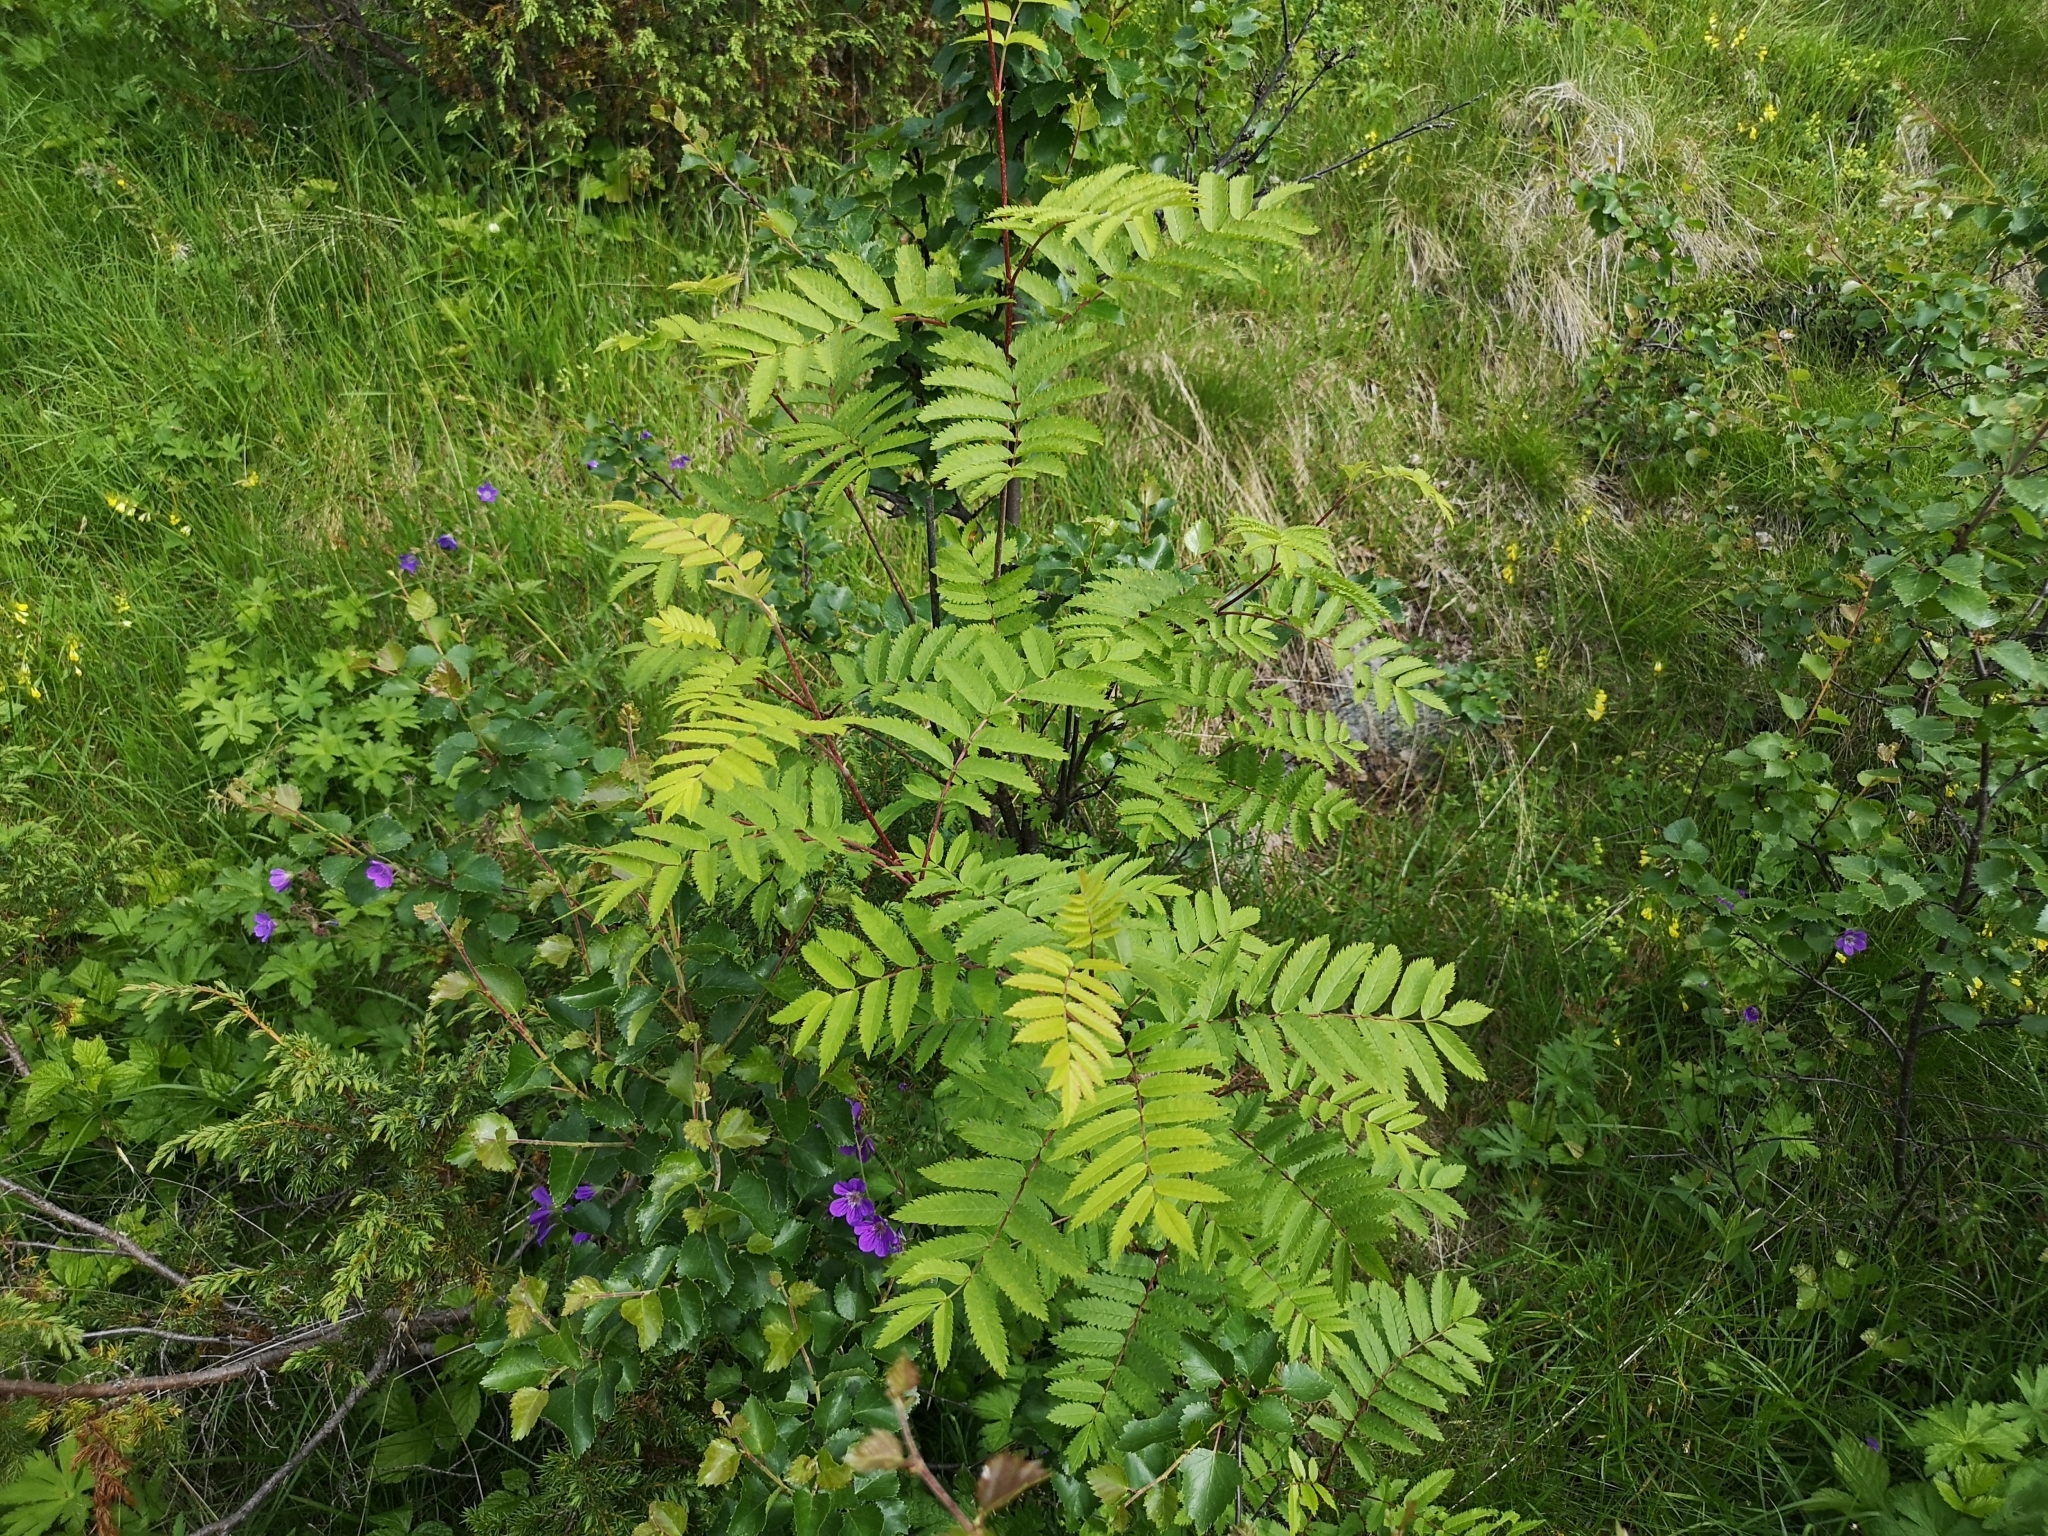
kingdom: Plantae
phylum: Tracheophyta
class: Magnoliopsida
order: Rosales
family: Rosaceae
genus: Sorbus
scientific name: Sorbus aucuparia
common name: Rowan
